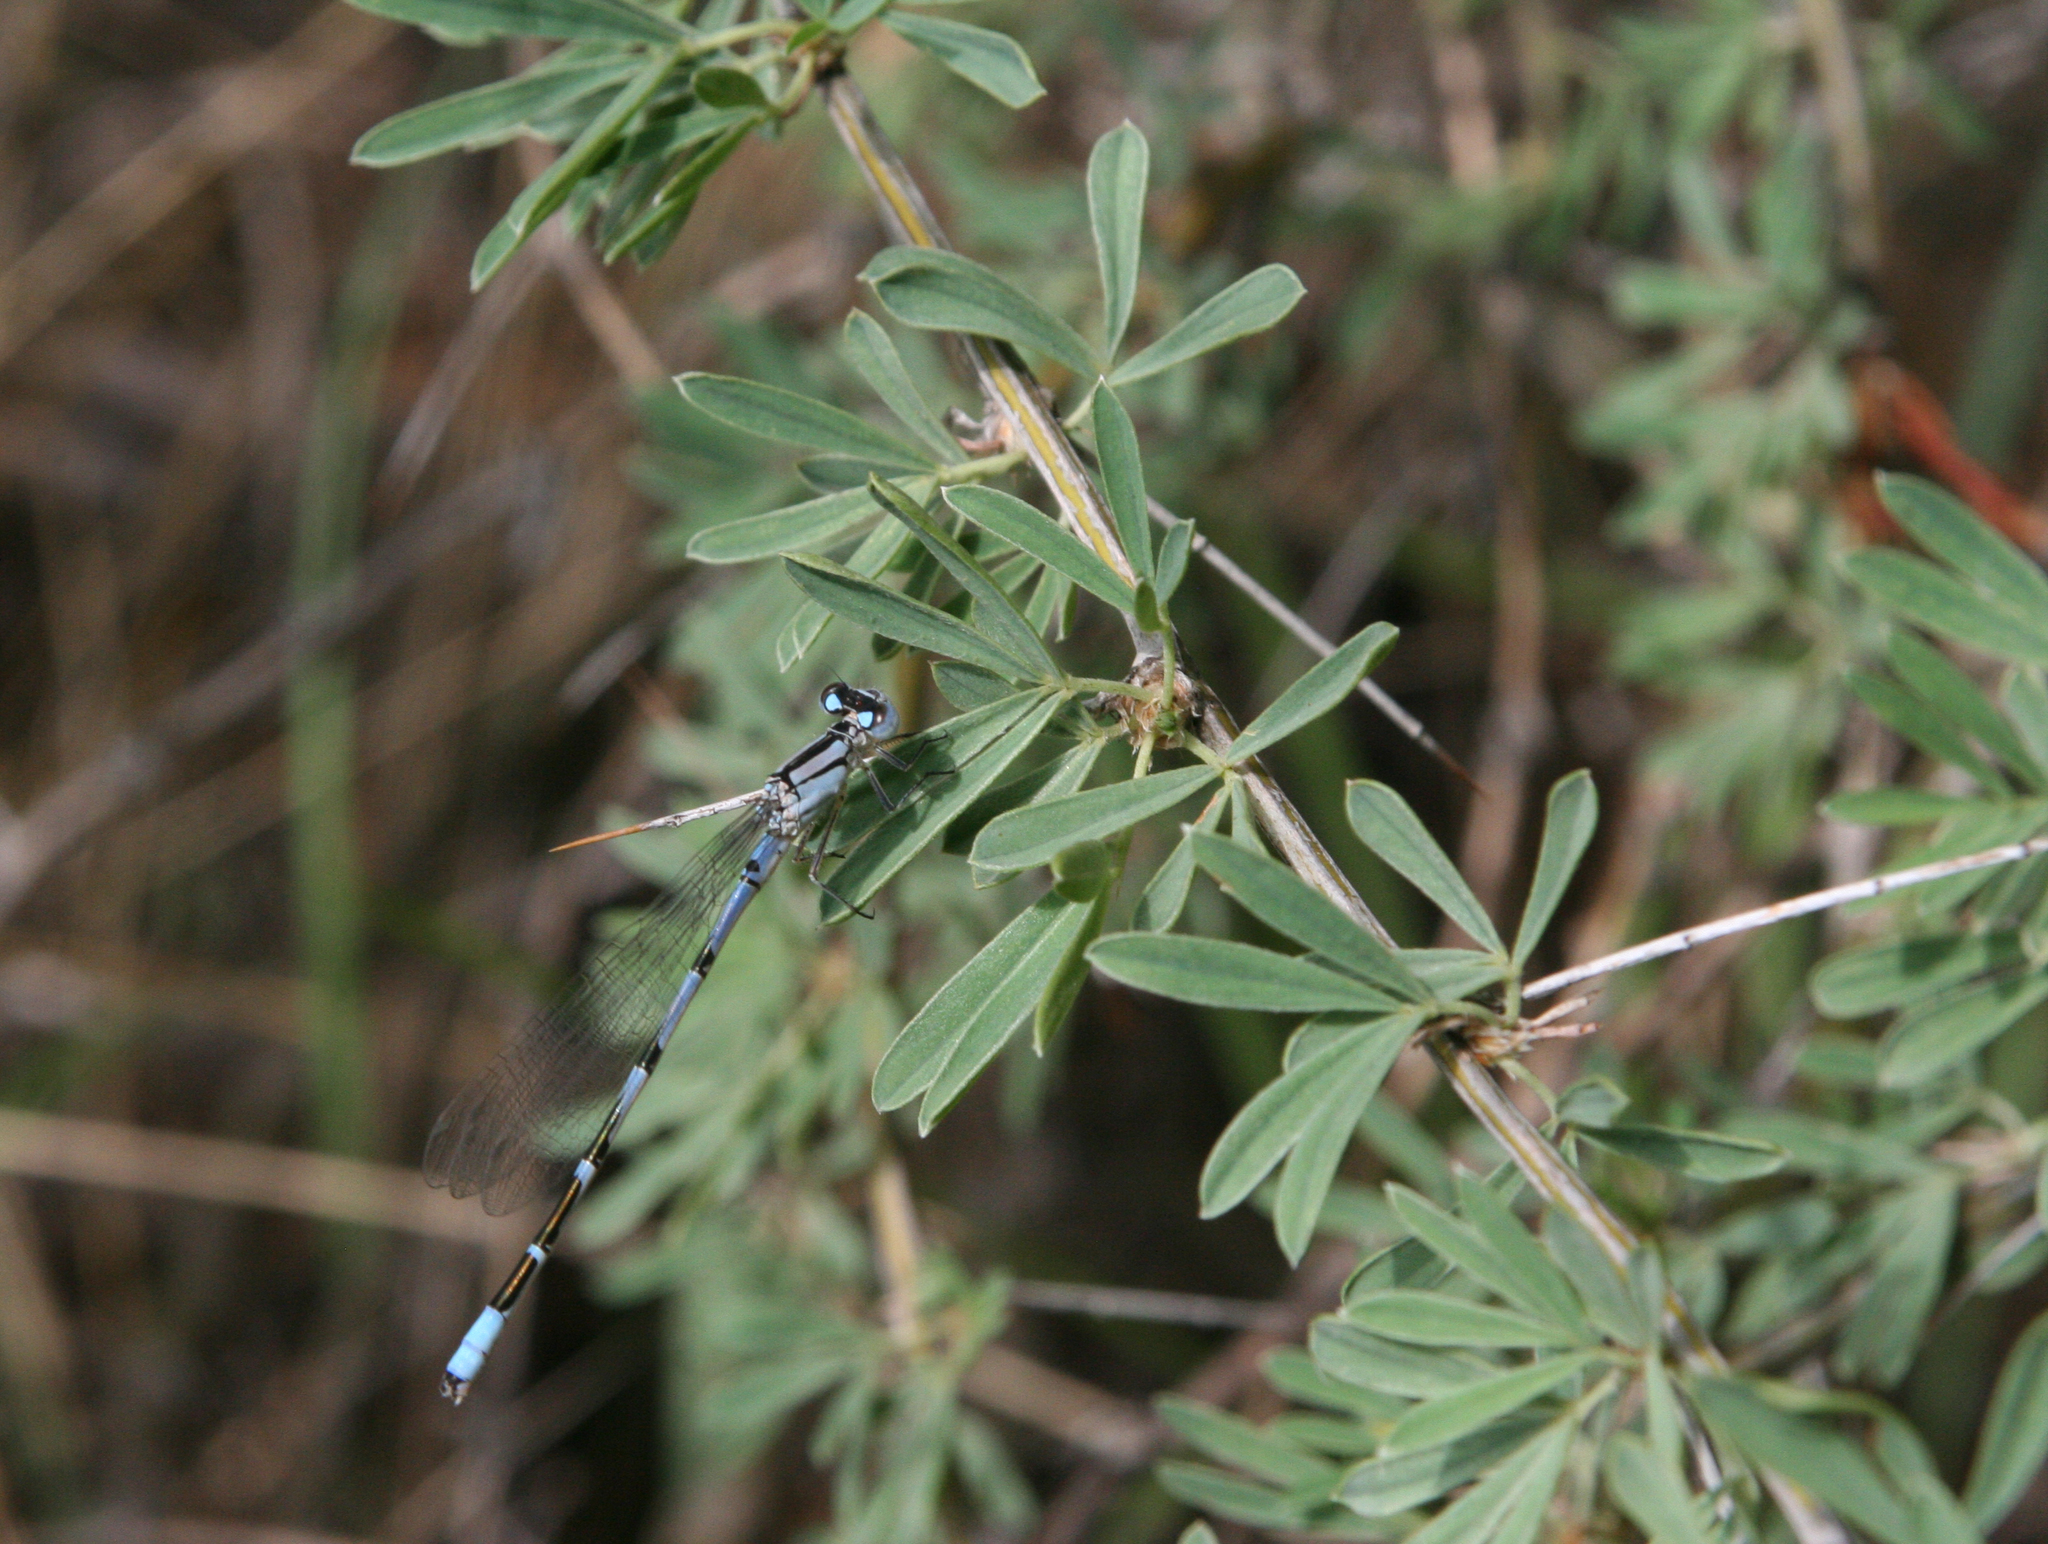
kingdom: Animalia
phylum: Arthropoda
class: Insecta
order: Odonata
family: Coenagrionidae
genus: Enallagma
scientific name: Enallagma cyathigerum
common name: Common blue damselfly
